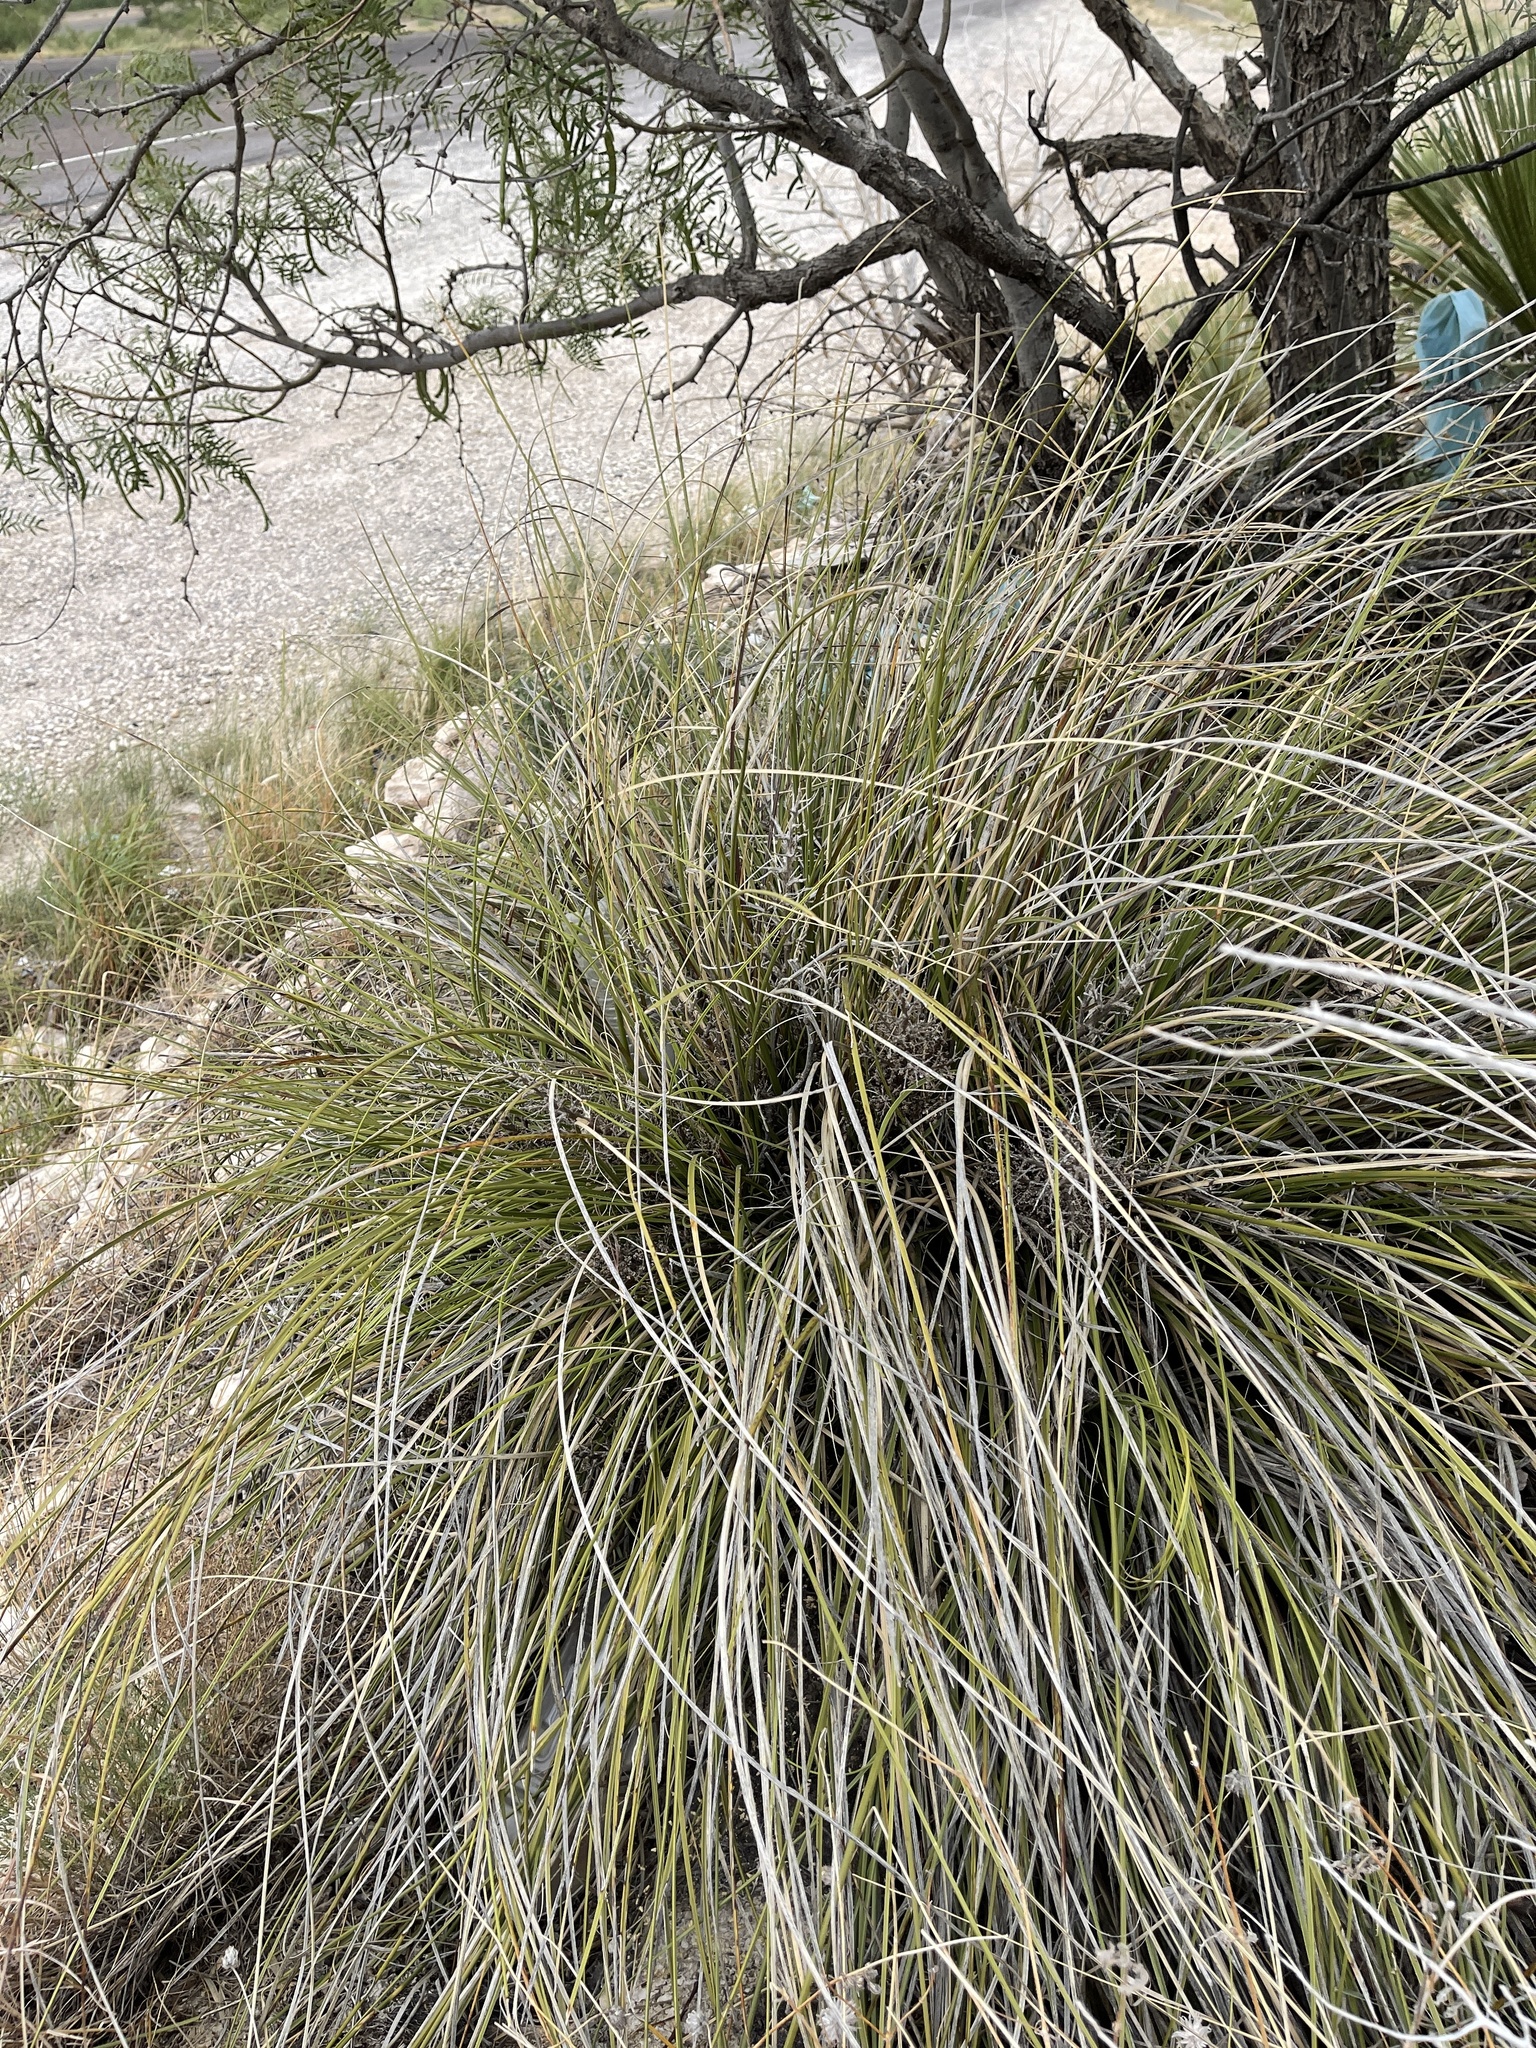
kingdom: Plantae
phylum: Tracheophyta
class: Liliopsida
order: Asparagales
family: Asparagaceae
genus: Nolina
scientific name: Nolina texana
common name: Texas sacahuiste
